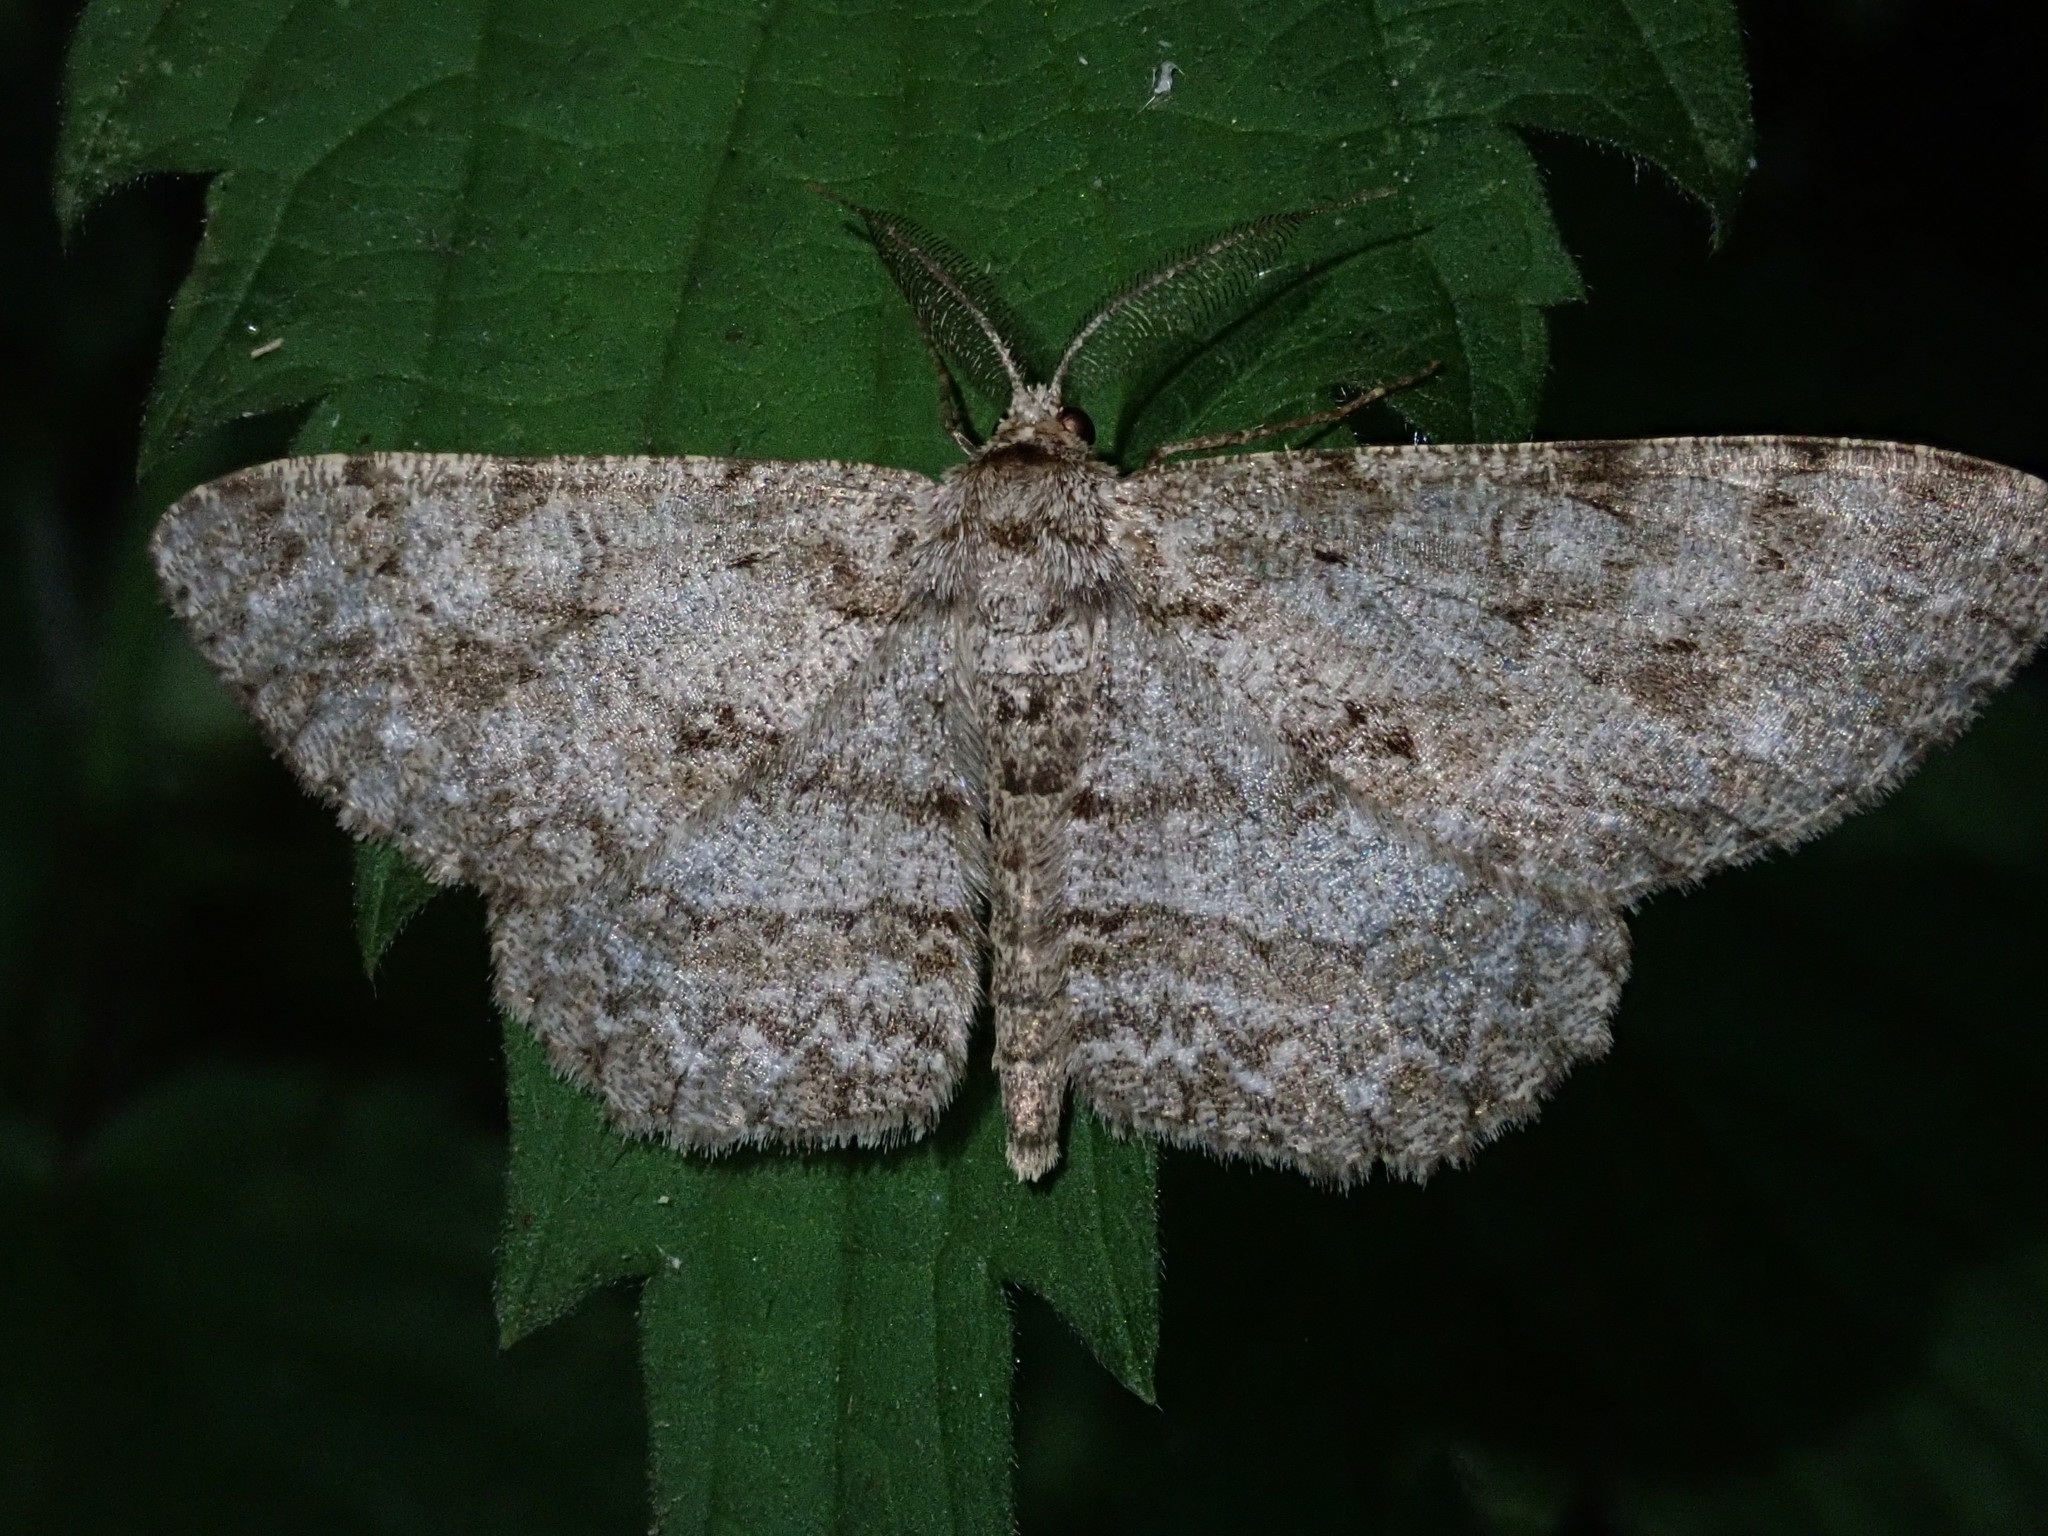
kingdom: Animalia
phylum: Arthropoda
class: Insecta
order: Lepidoptera
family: Geometridae
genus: Hypomecis
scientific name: Hypomecis punctinalis
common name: Pale oak beauty
